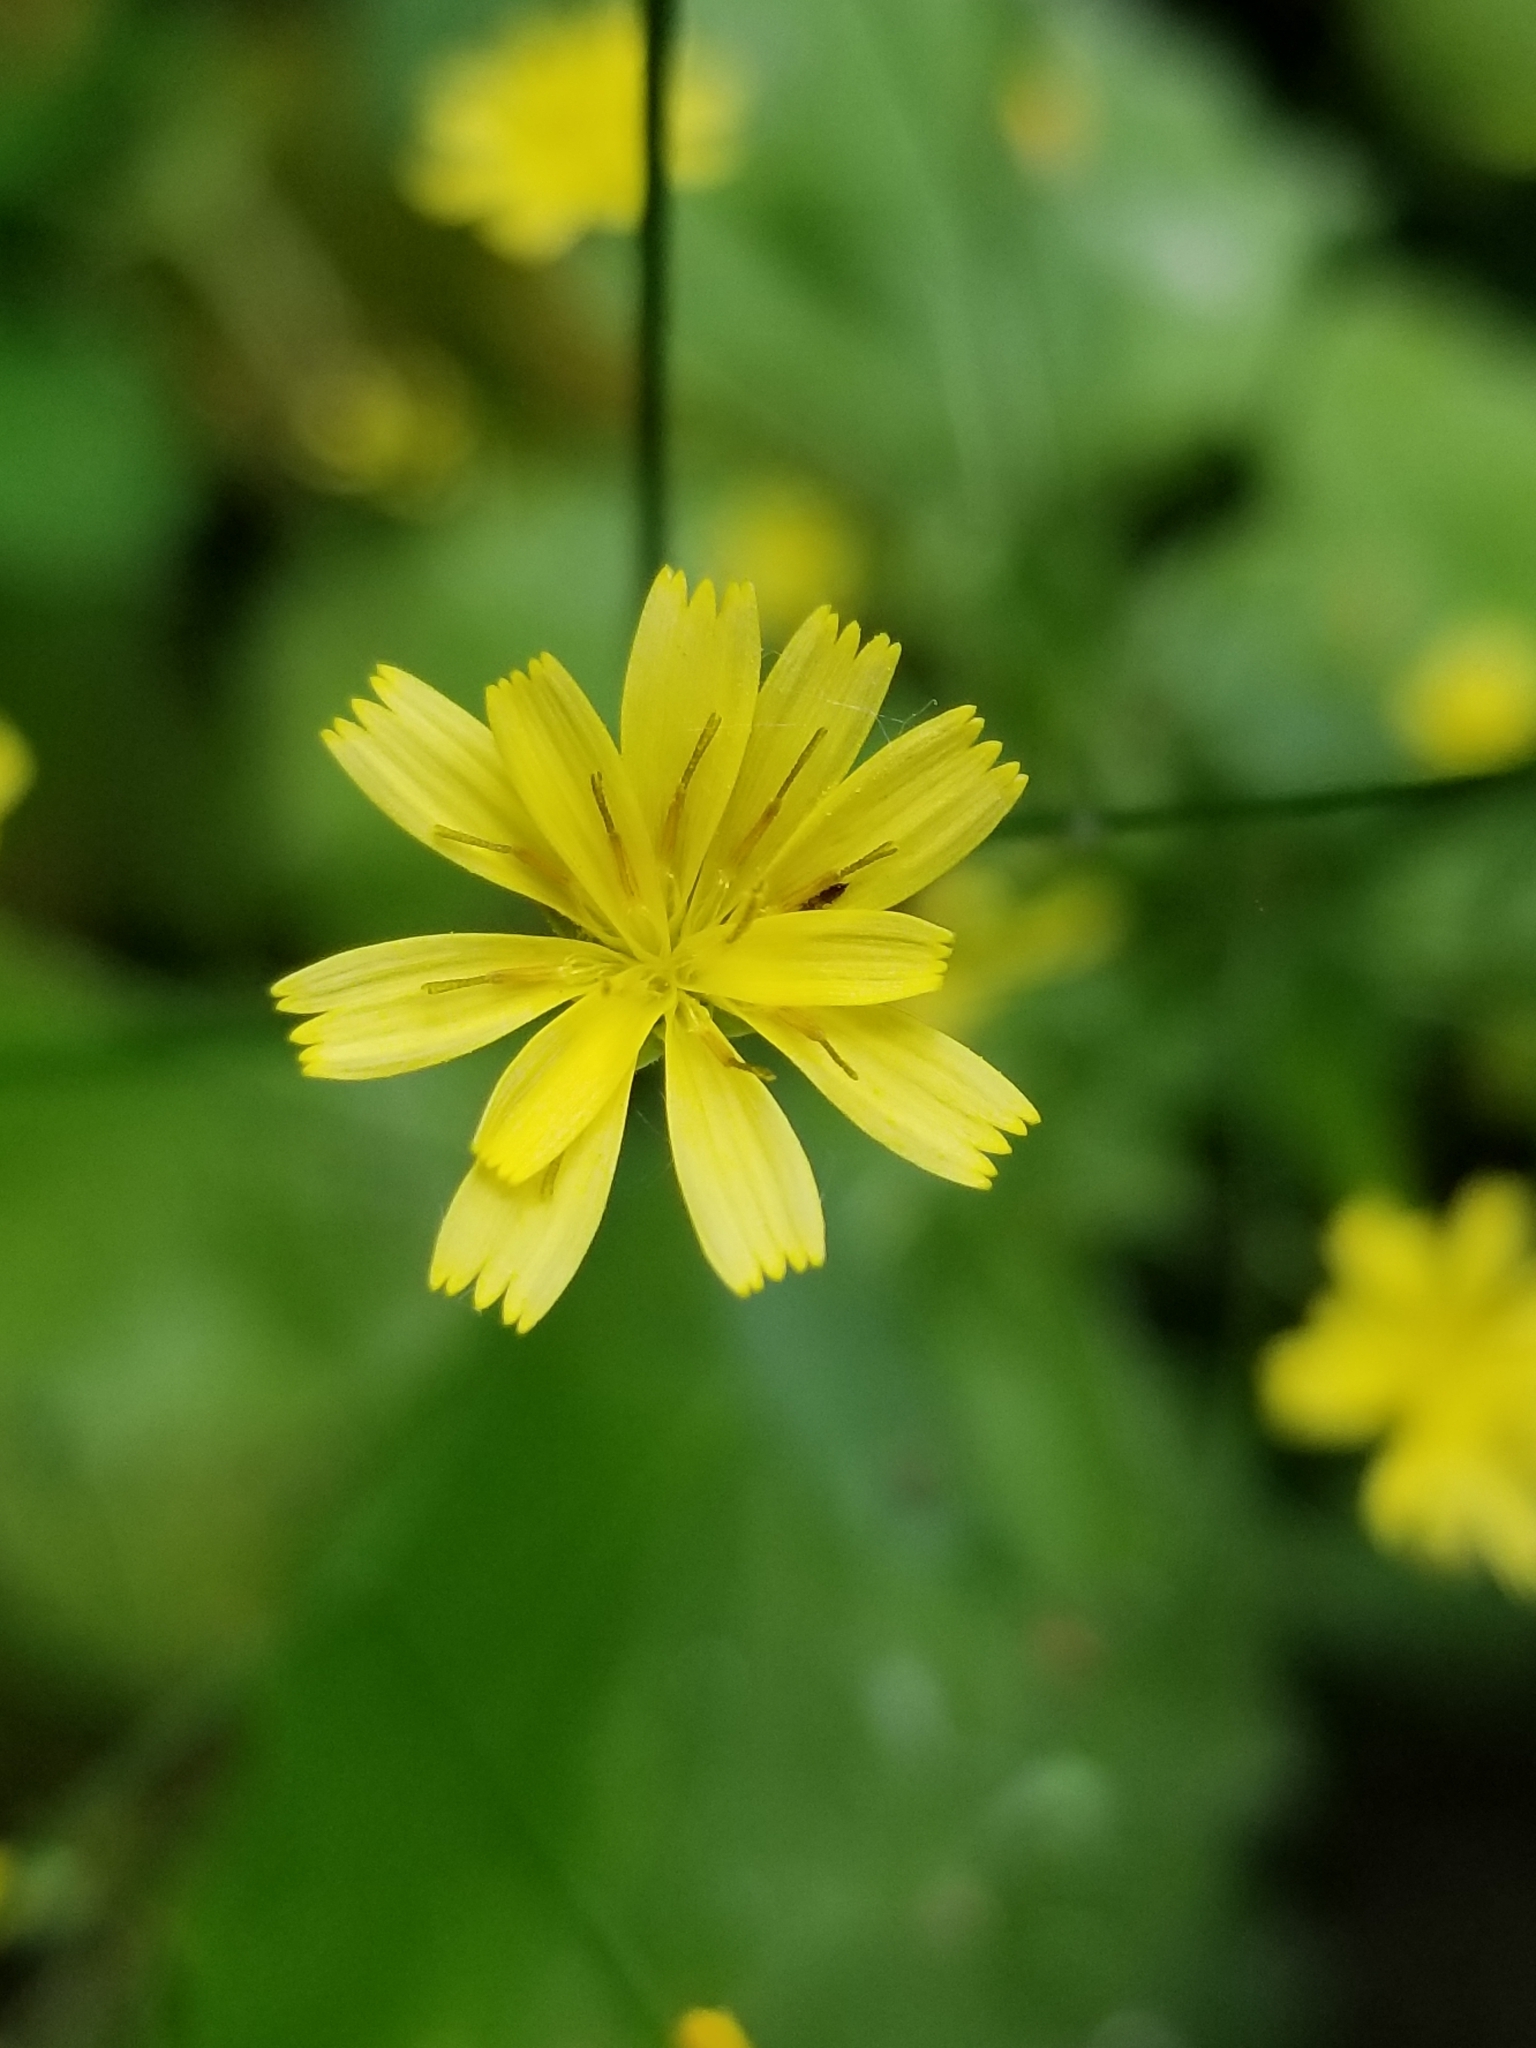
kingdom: Plantae
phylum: Tracheophyta
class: Magnoliopsida
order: Asterales
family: Asteraceae
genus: Lapsana
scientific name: Lapsana communis
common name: Nipplewort
